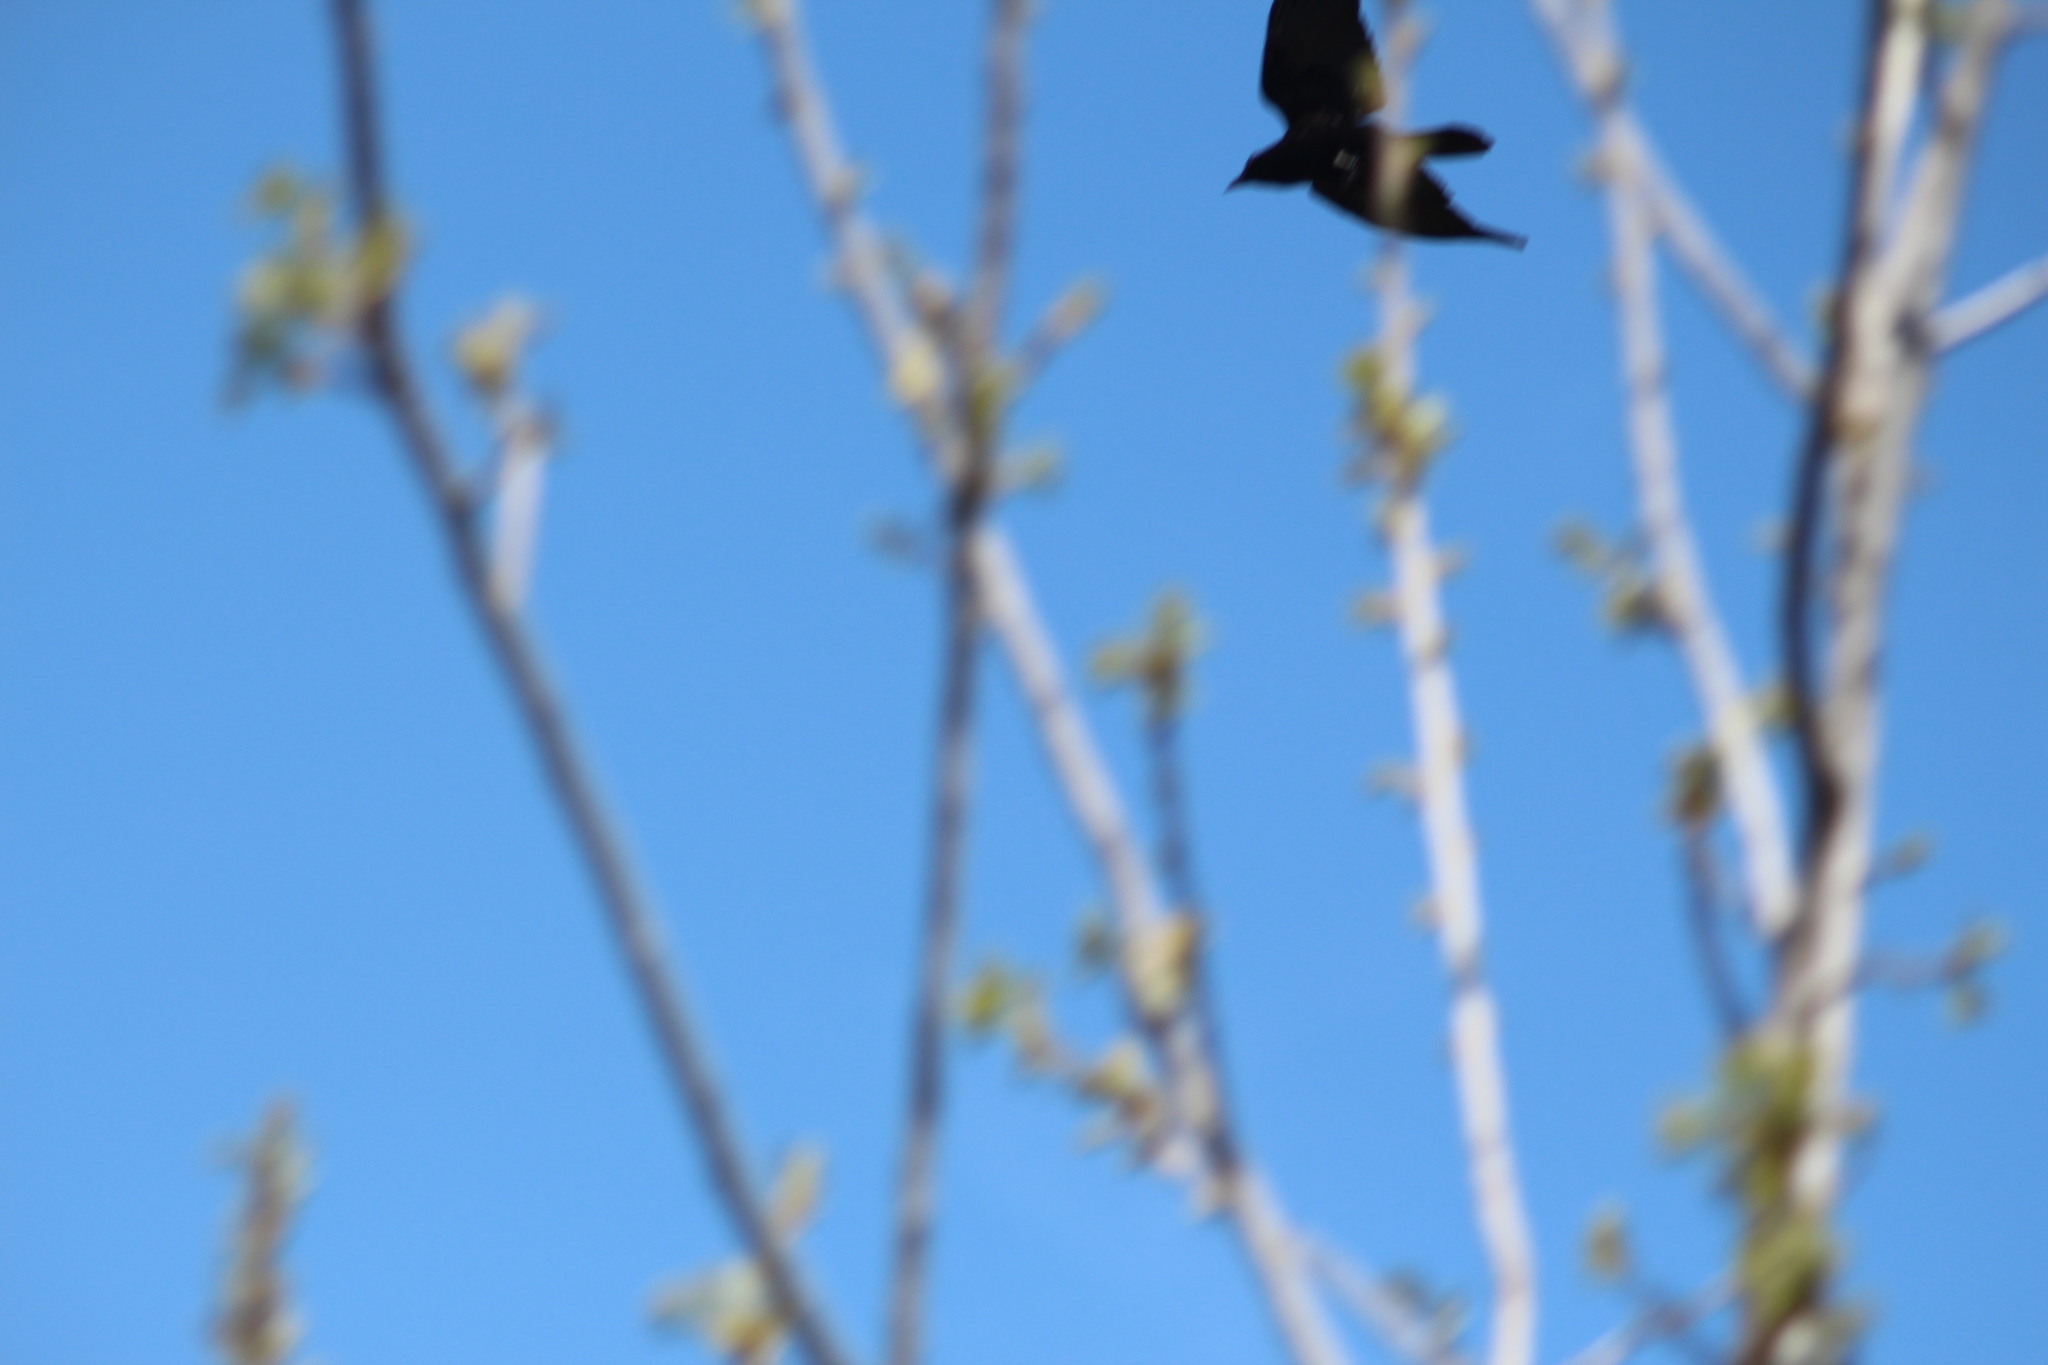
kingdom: Animalia
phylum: Chordata
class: Aves
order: Passeriformes
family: Corvidae
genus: Corvus
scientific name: Corvus corax
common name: Common raven
